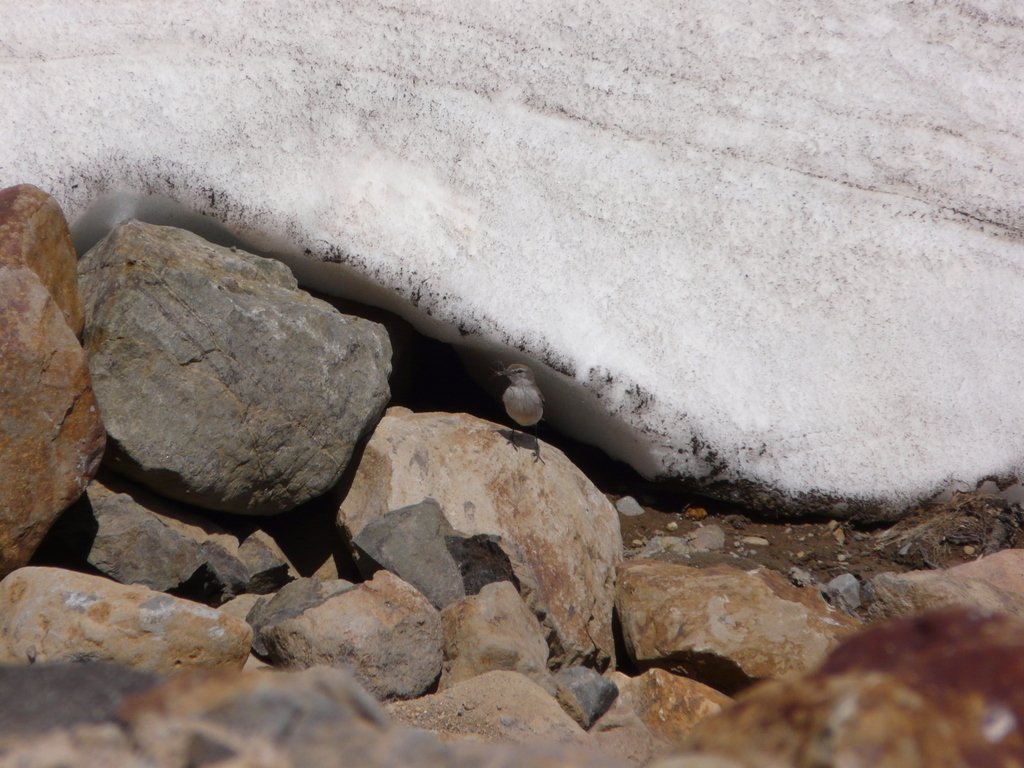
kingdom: Animalia
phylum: Chordata
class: Aves
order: Passeriformes
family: Tyrannidae
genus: Muscisaxicola
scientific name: Muscisaxicola albilora
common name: White-browed ground tyrant
